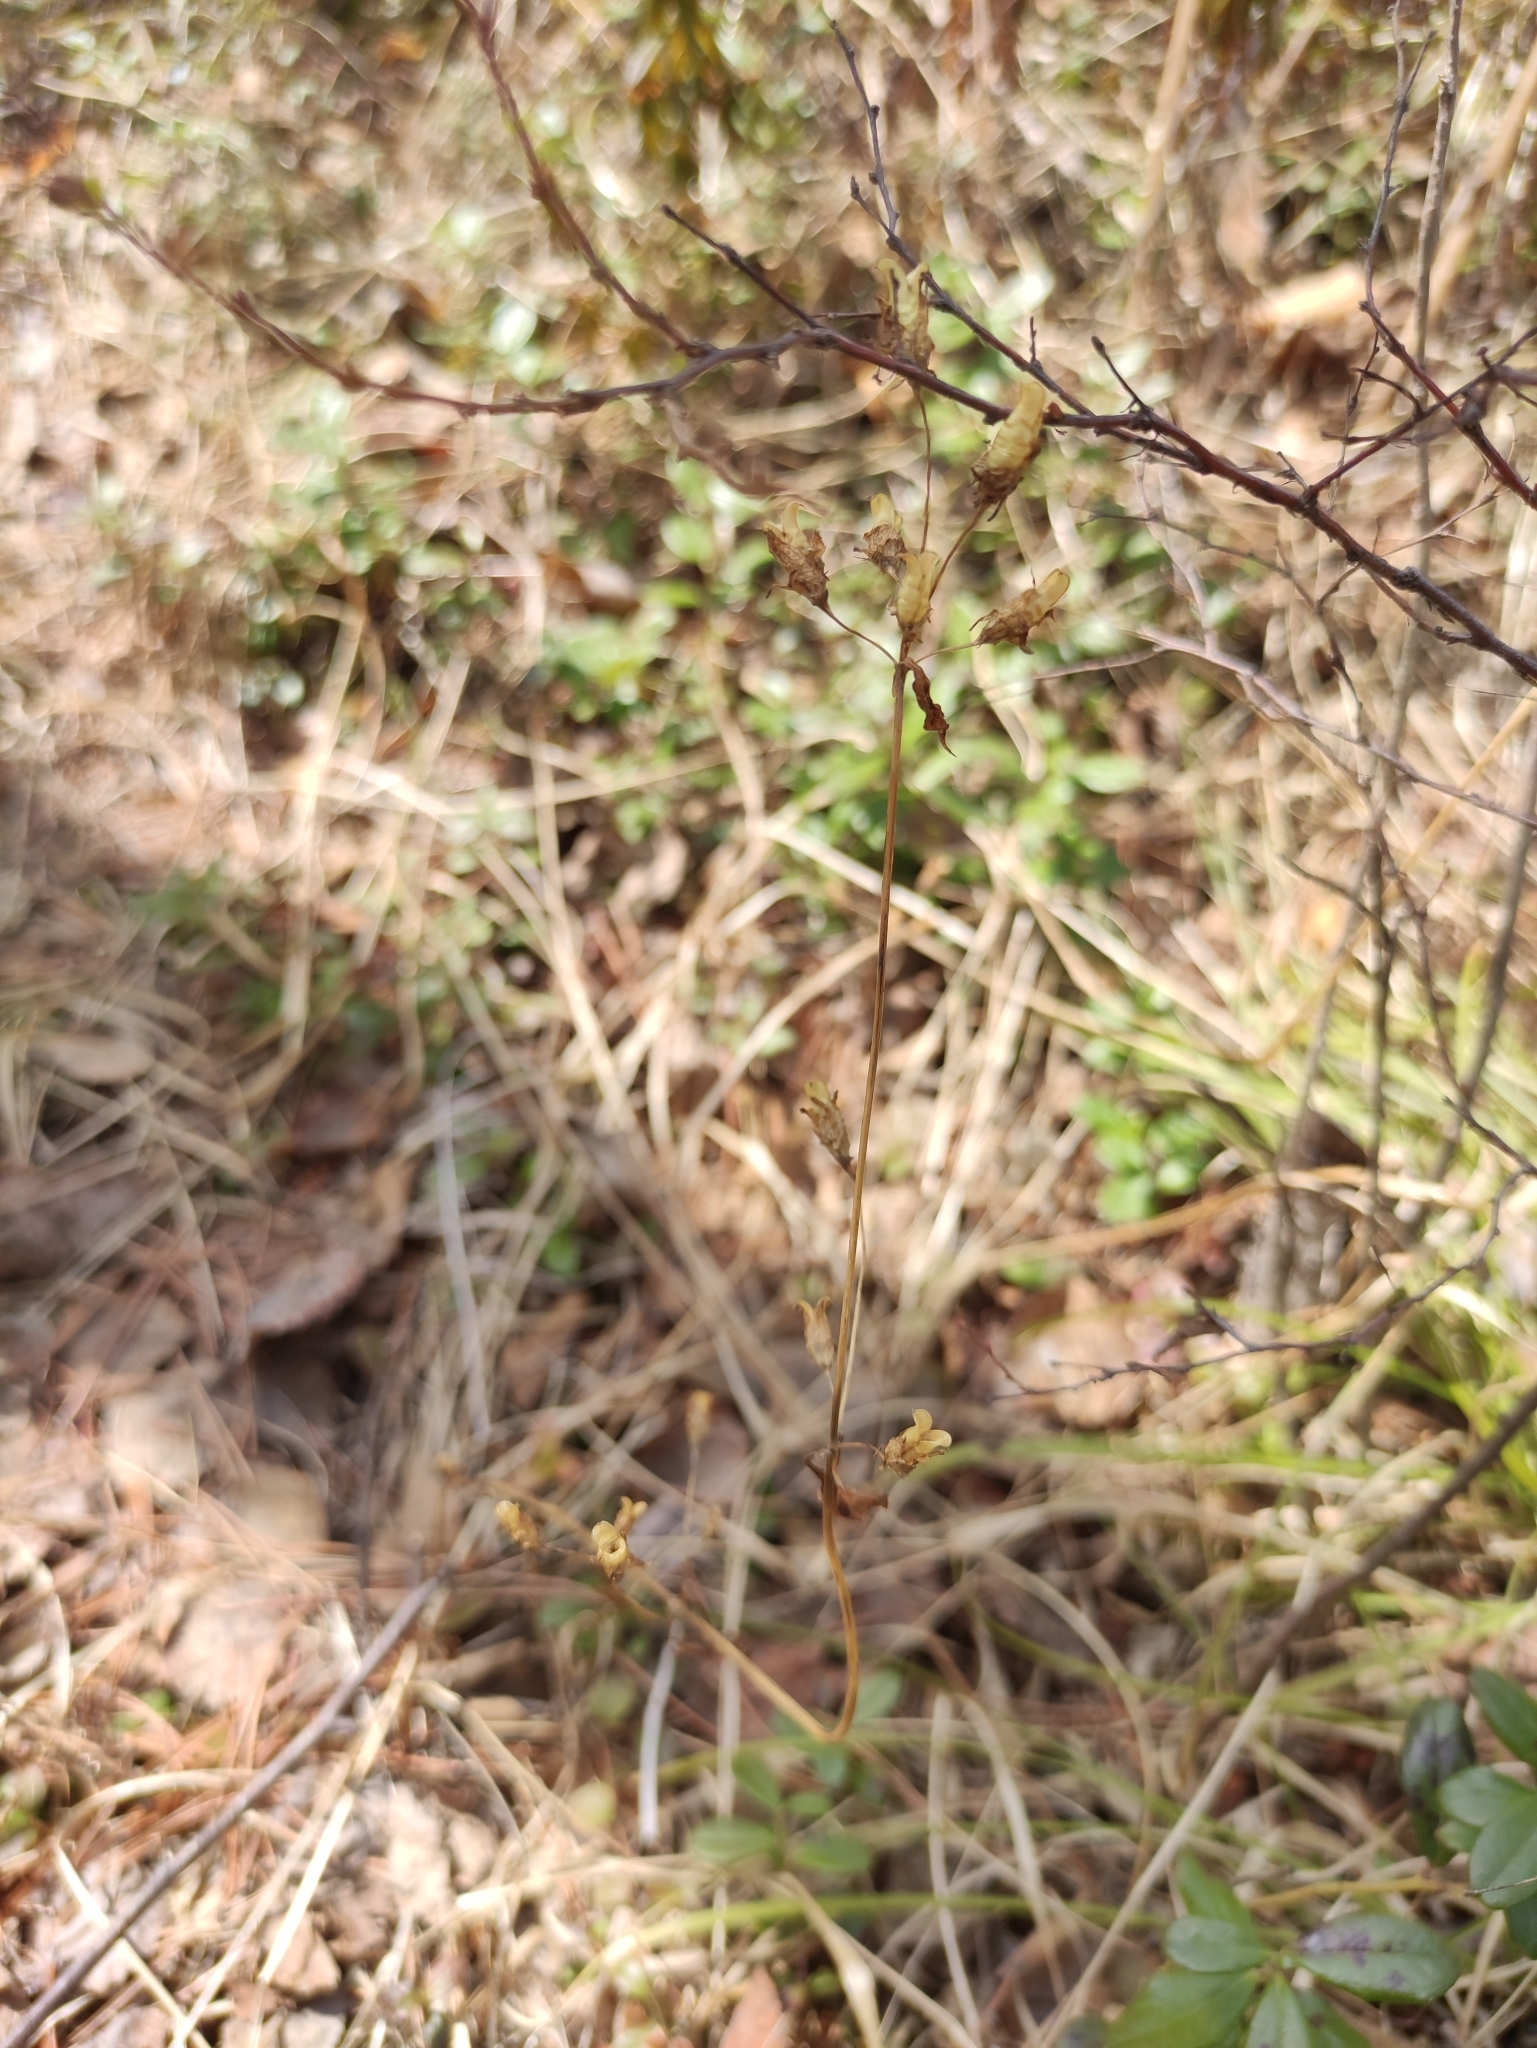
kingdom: Plantae
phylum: Tracheophyta
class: Magnoliopsida
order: Gentianales
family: Gentianaceae
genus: Halenia
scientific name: Halenia corniculata
